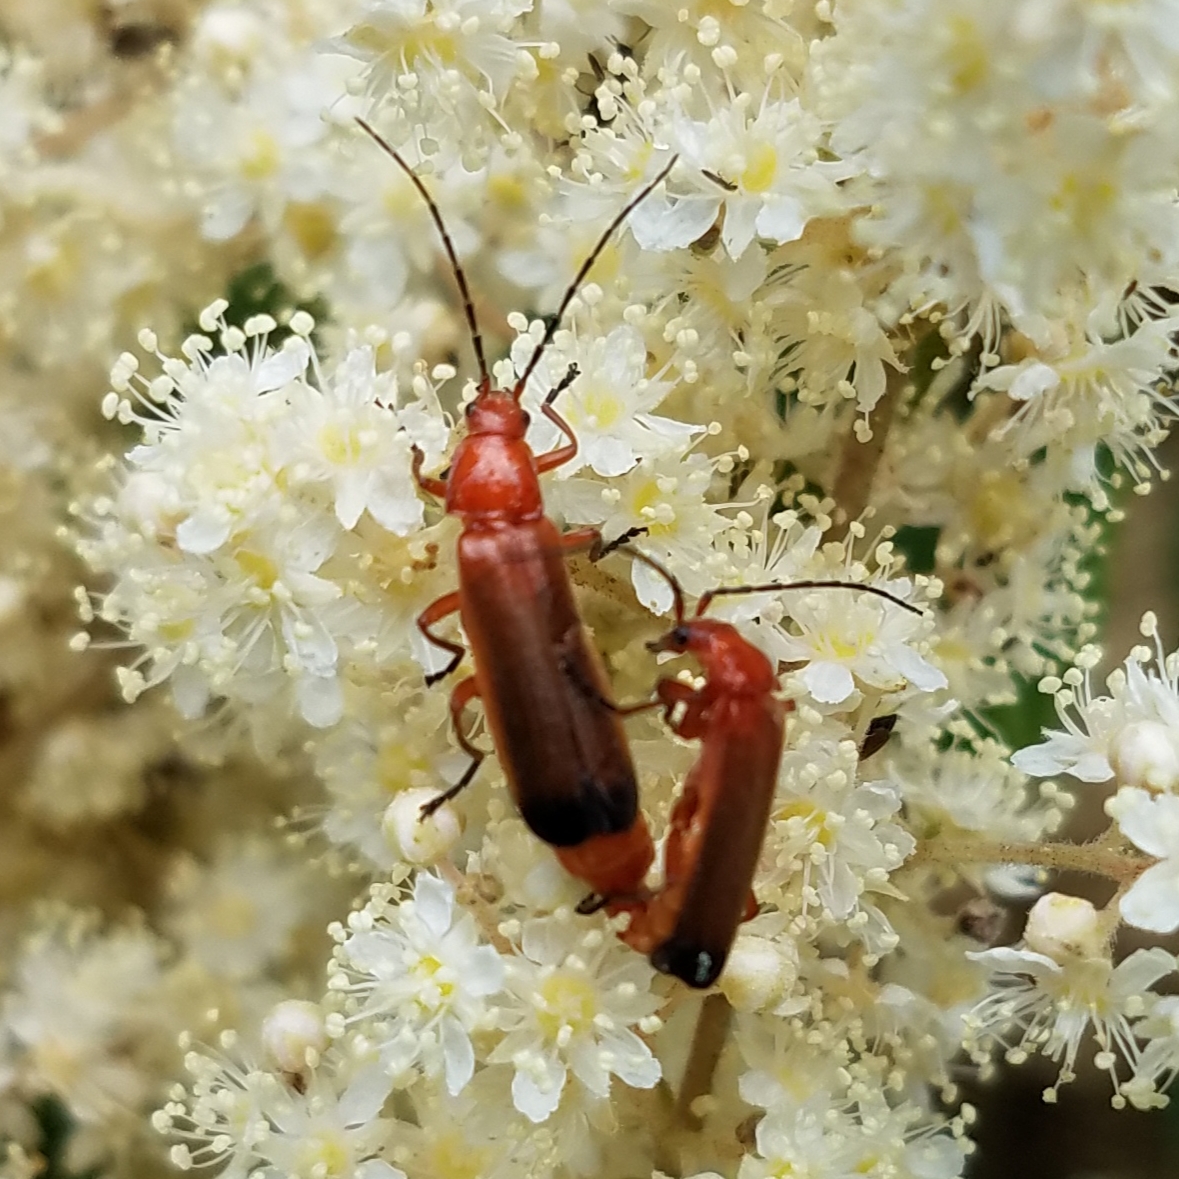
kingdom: Animalia
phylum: Arthropoda
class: Insecta
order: Coleoptera
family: Cantharidae
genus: Rhagonycha
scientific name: Rhagonycha fulva
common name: Common red soldier beetle
